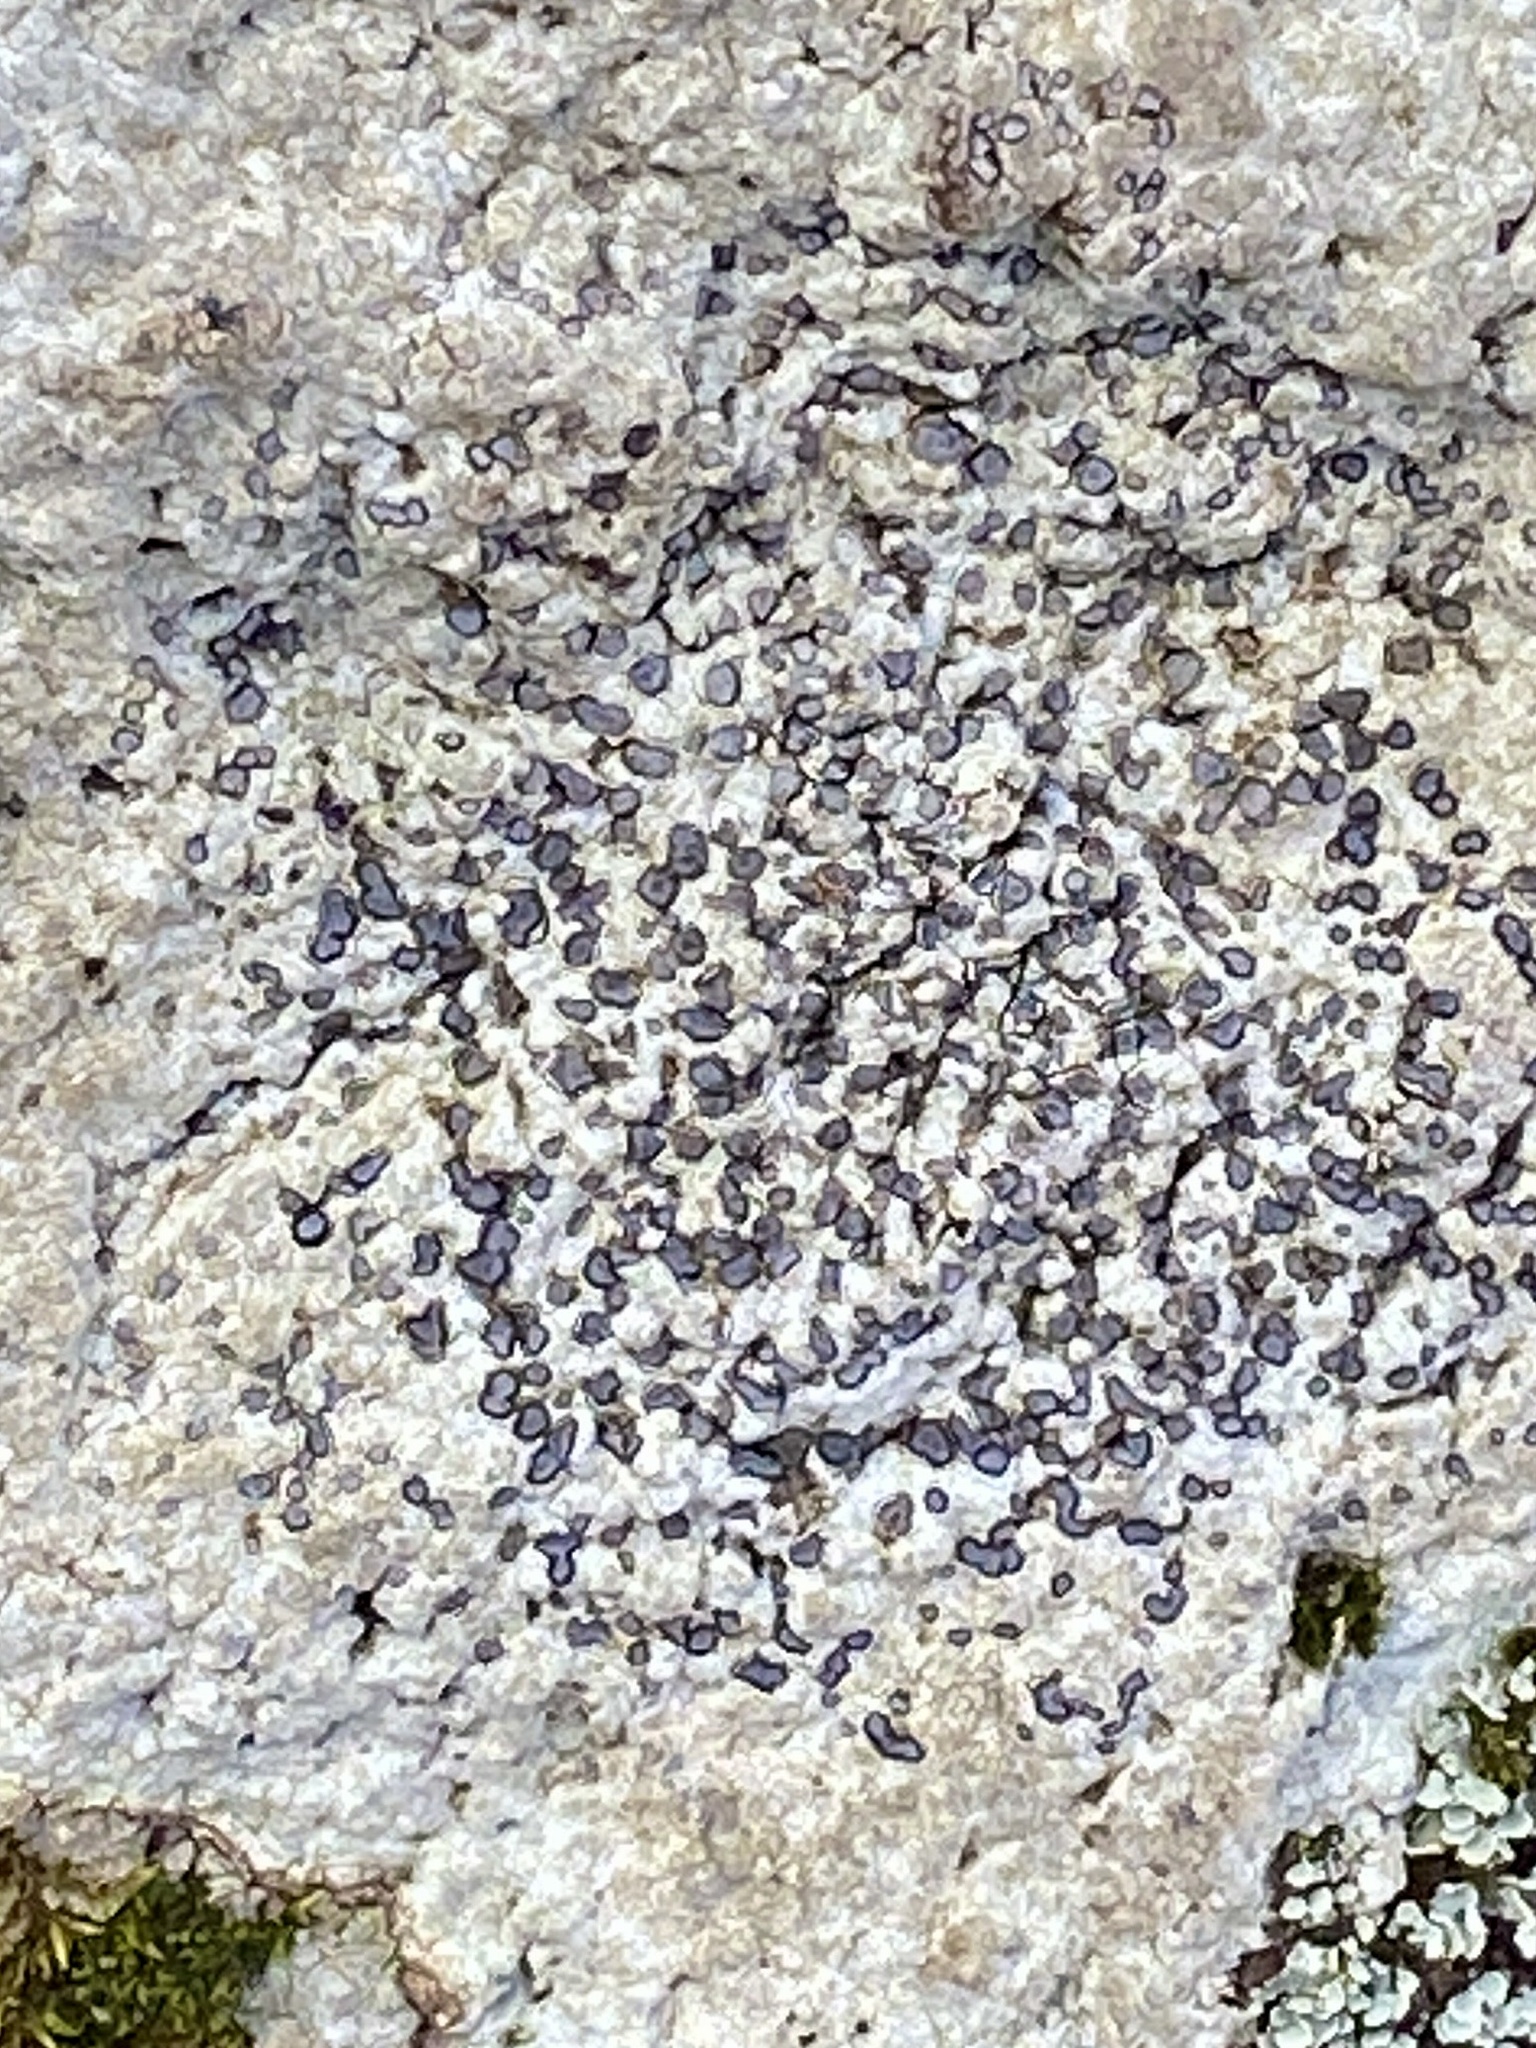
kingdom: Fungi
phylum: Ascomycota
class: Lecanoromycetes
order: Lecideales
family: Lecideaceae
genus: Porpidia
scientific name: Porpidia albocaerulescens
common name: Smokey-eyed boulder lichen
